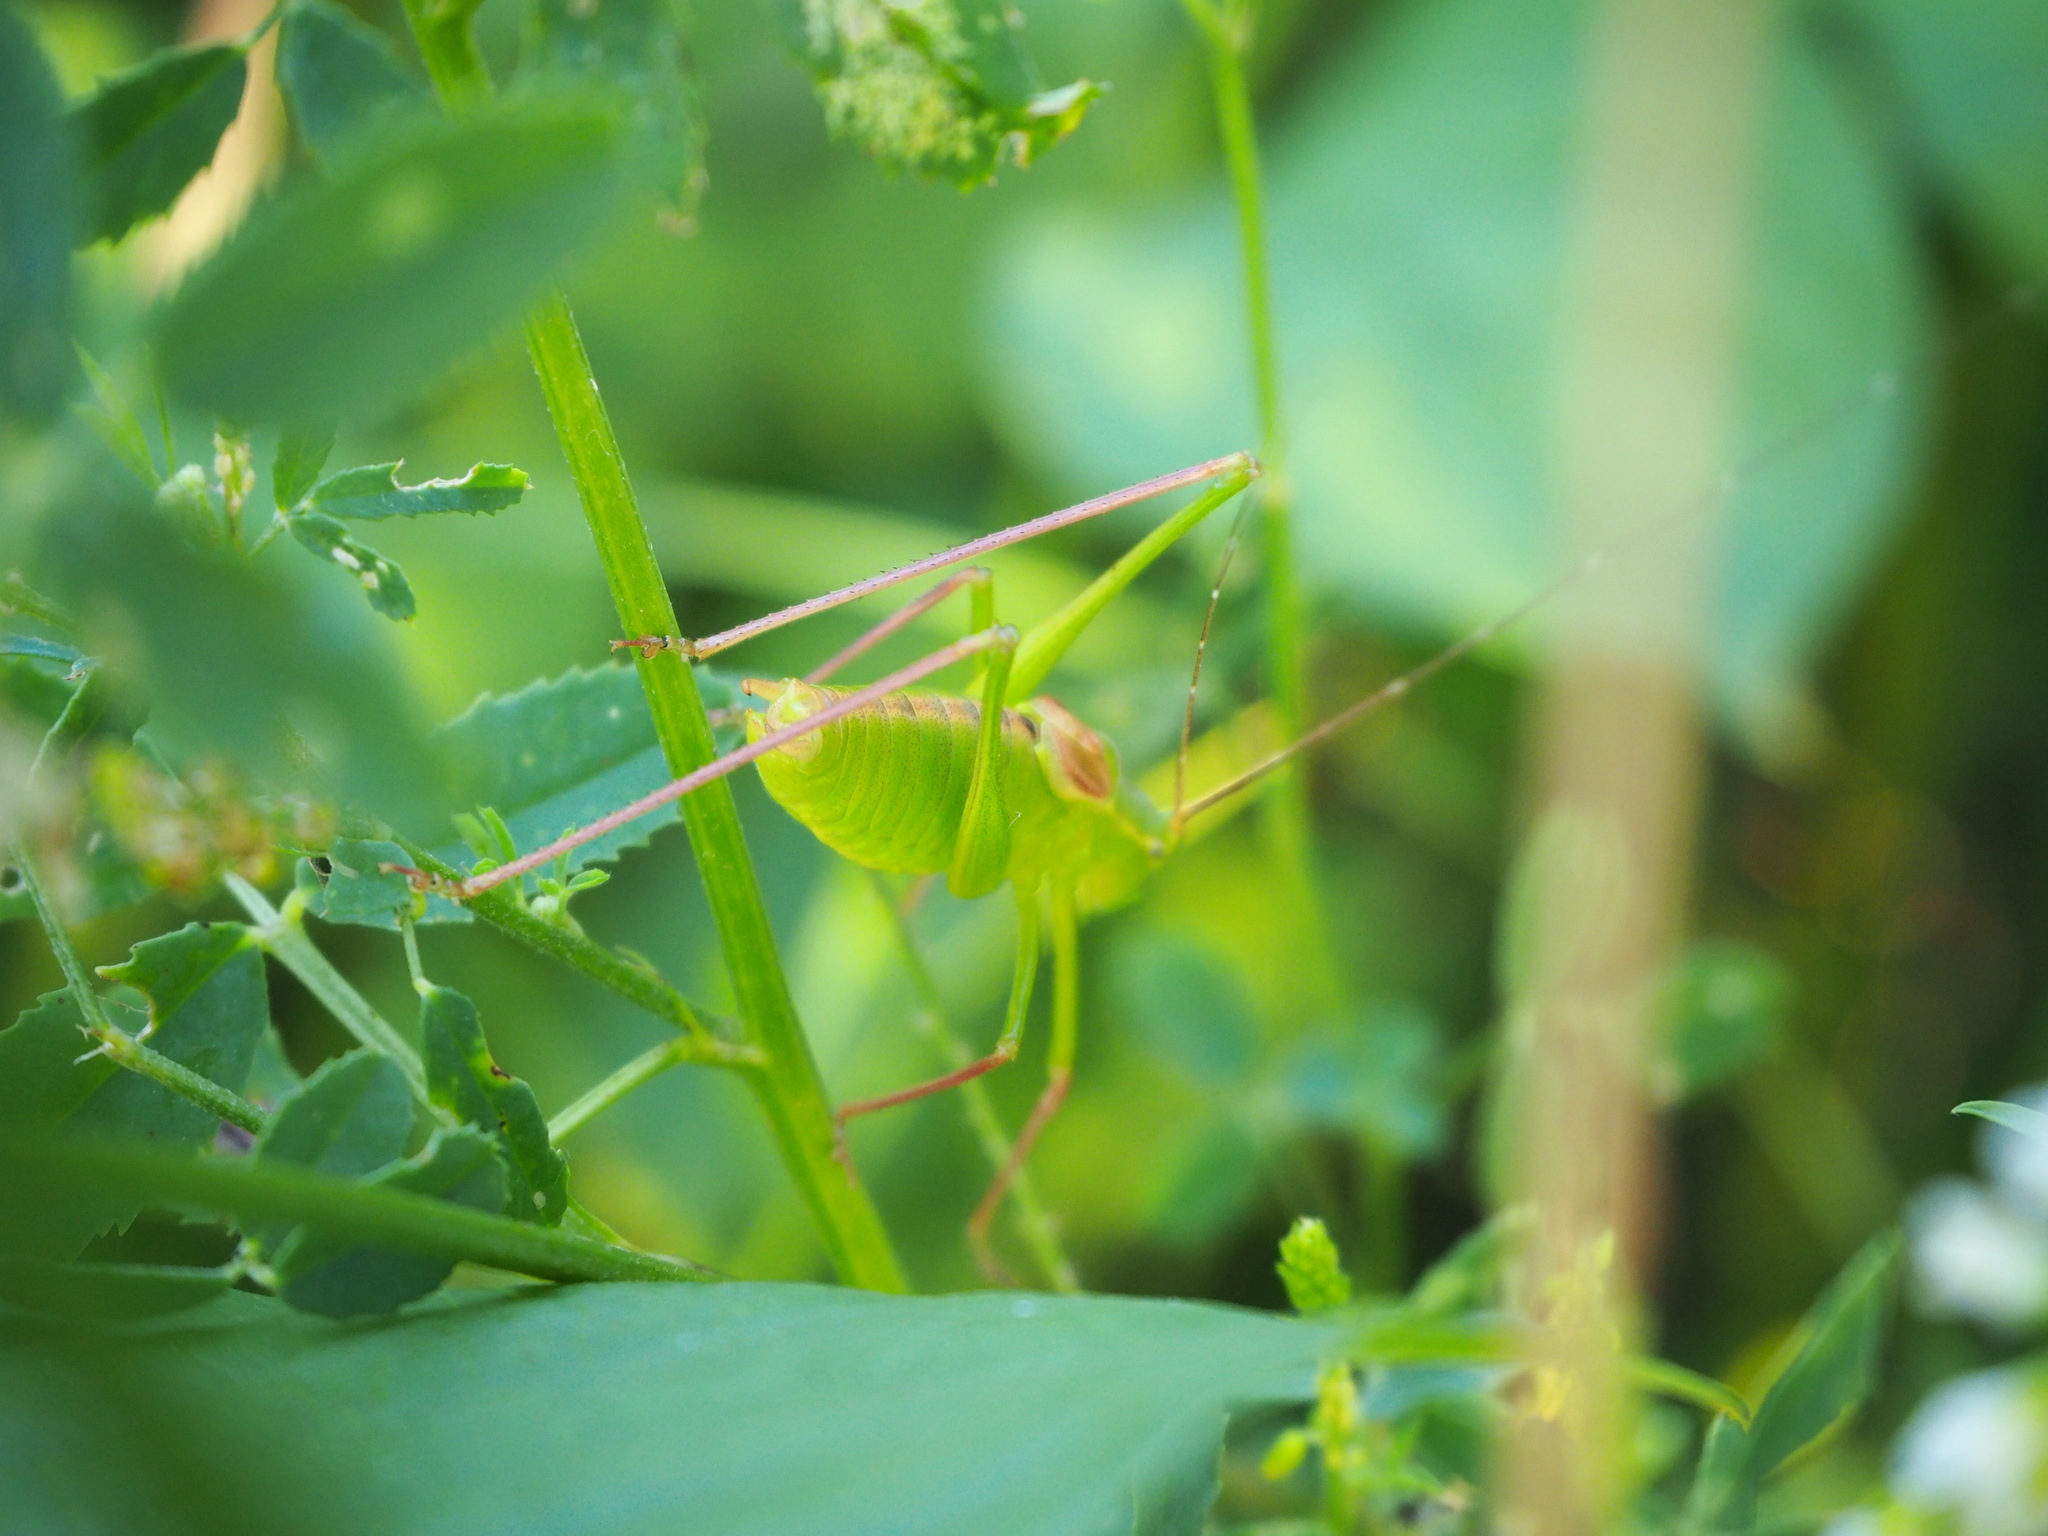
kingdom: Animalia
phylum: Arthropoda
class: Insecta
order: Orthoptera
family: Tettigoniidae
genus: Leptophyes
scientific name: Leptophyes laticauda
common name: Long-tailed speckled bush-cricket
